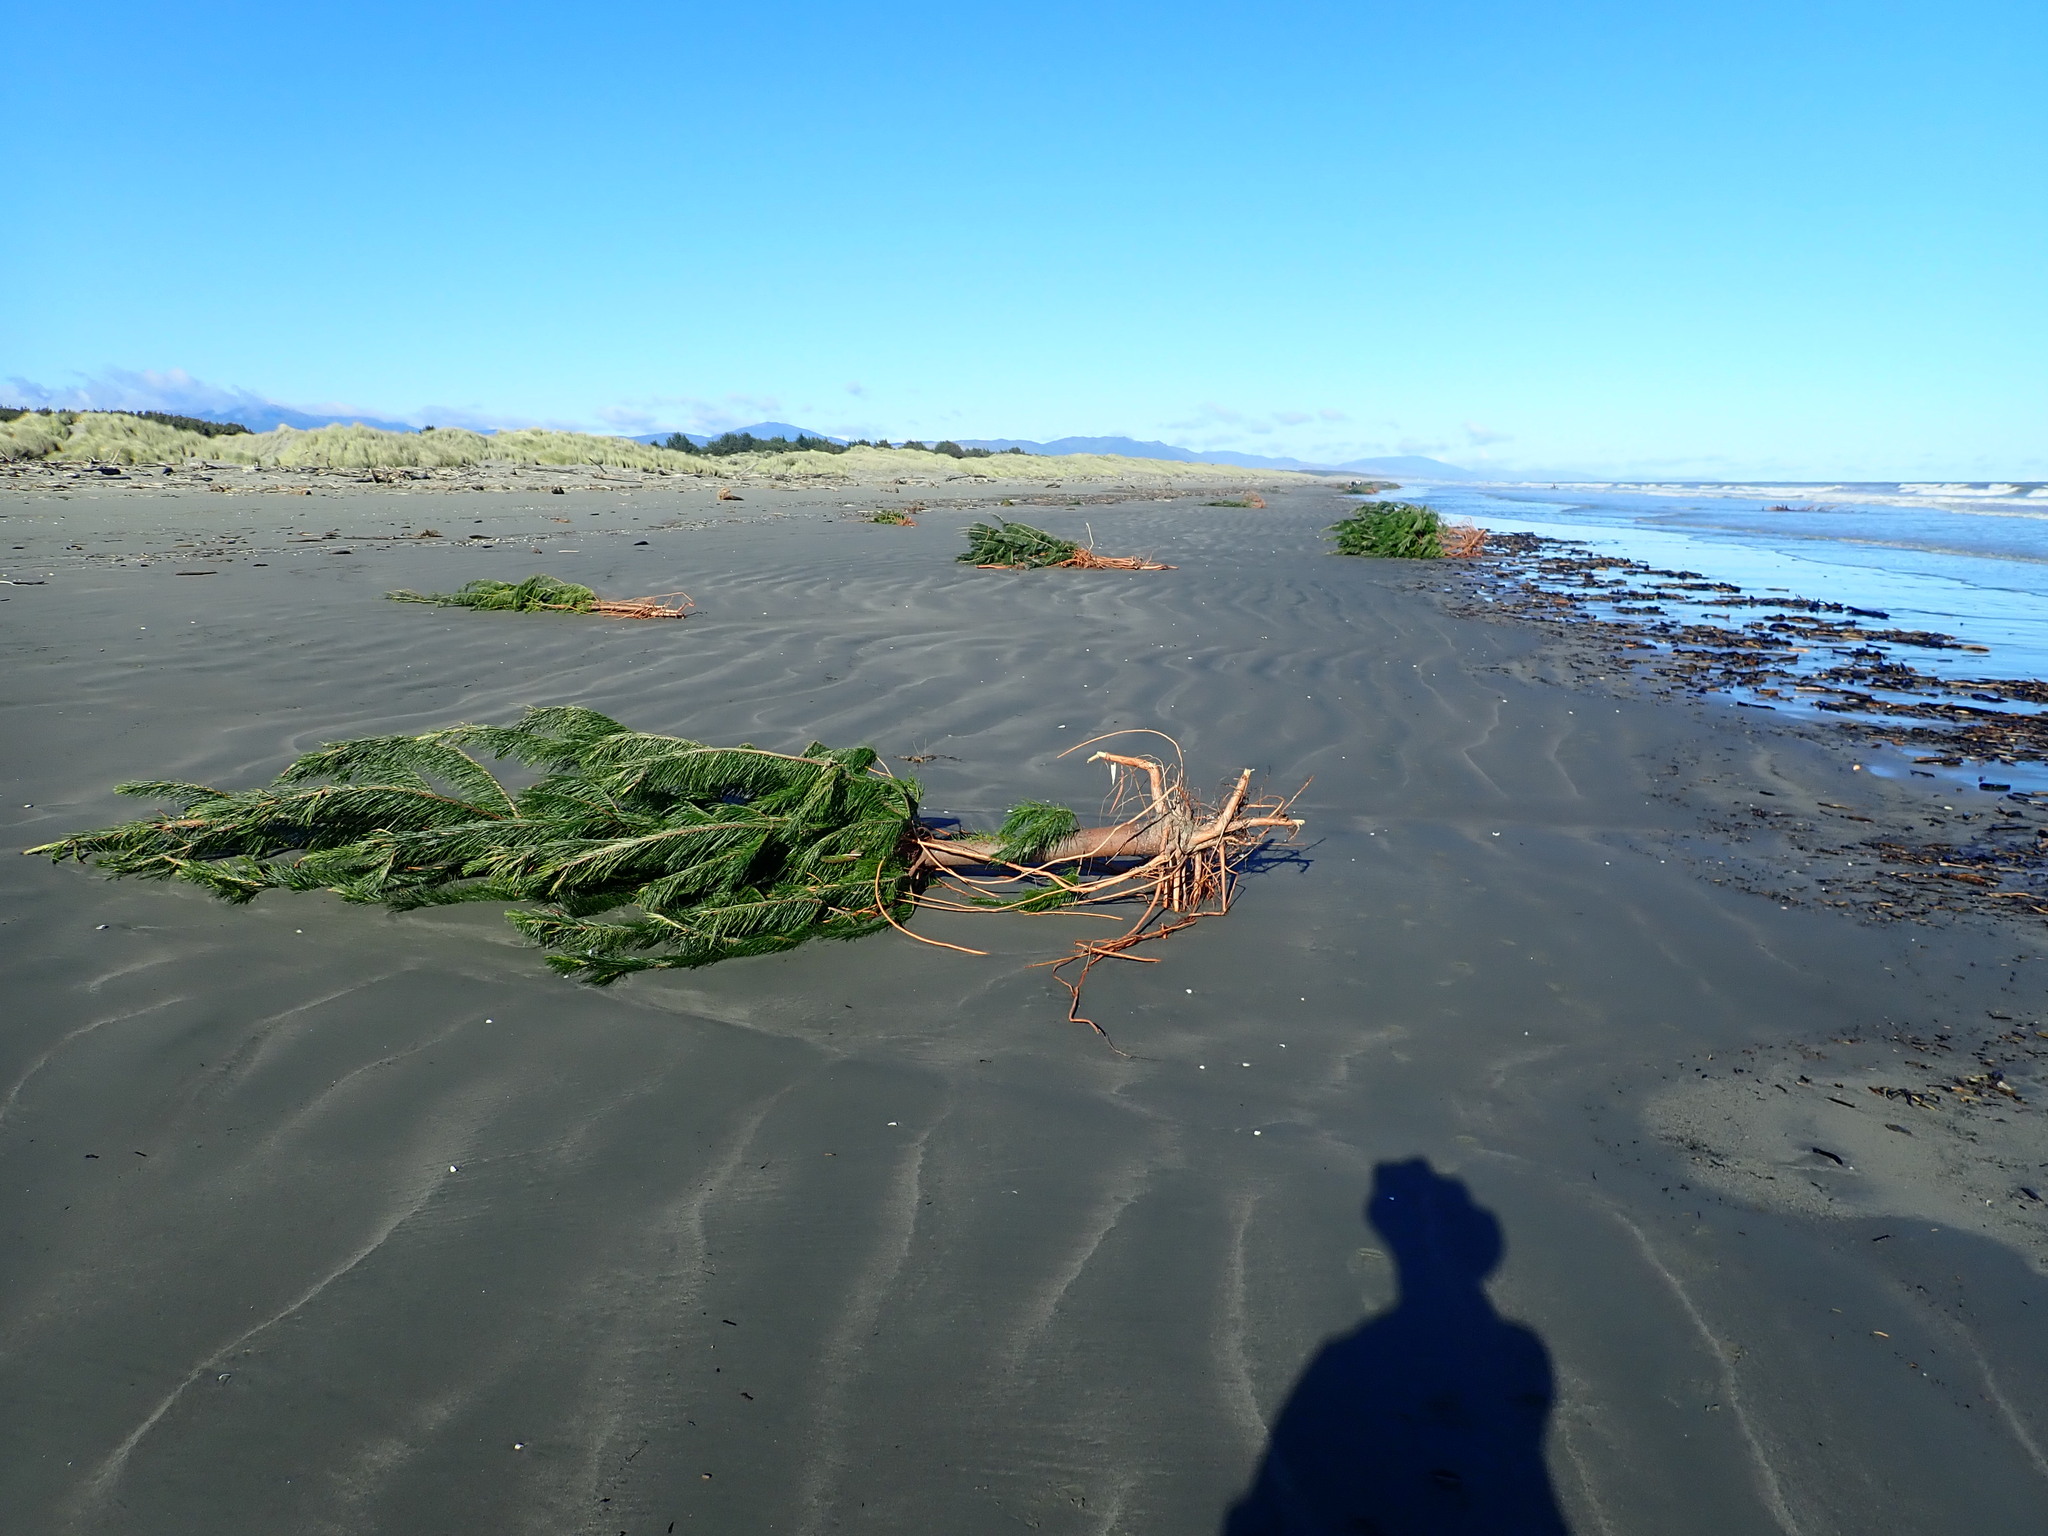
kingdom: Plantae
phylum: Tracheophyta
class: Pinopsida
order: Pinales
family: Pinaceae
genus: Pinus
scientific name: Pinus radiata
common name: Monterey pine
